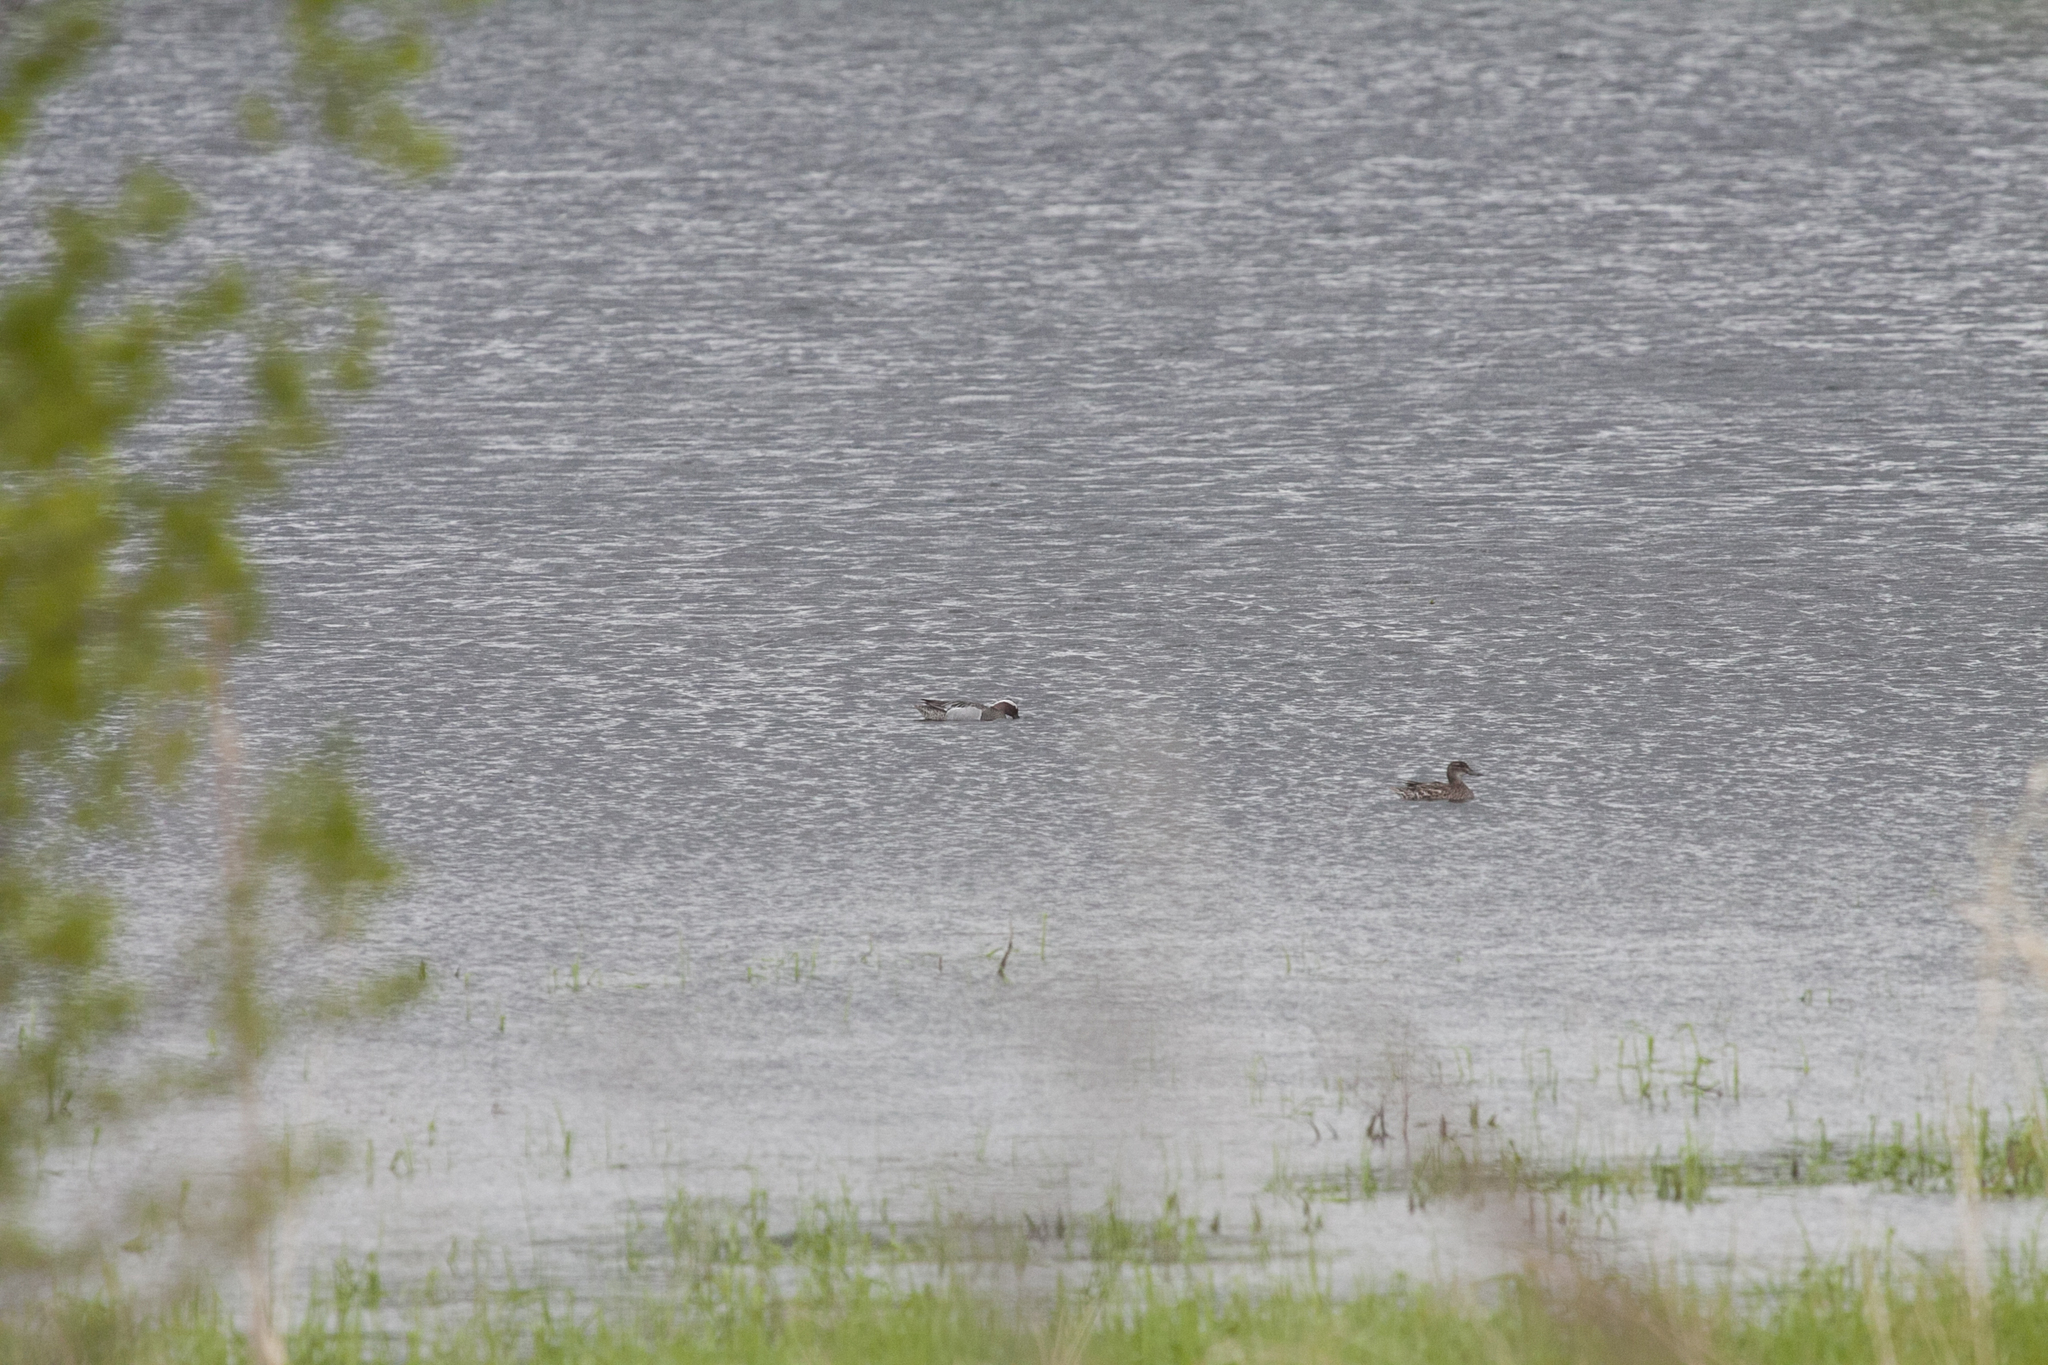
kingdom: Animalia
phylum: Chordata
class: Aves
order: Anseriformes
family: Anatidae
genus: Spatula
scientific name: Spatula querquedula
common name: Garganey
